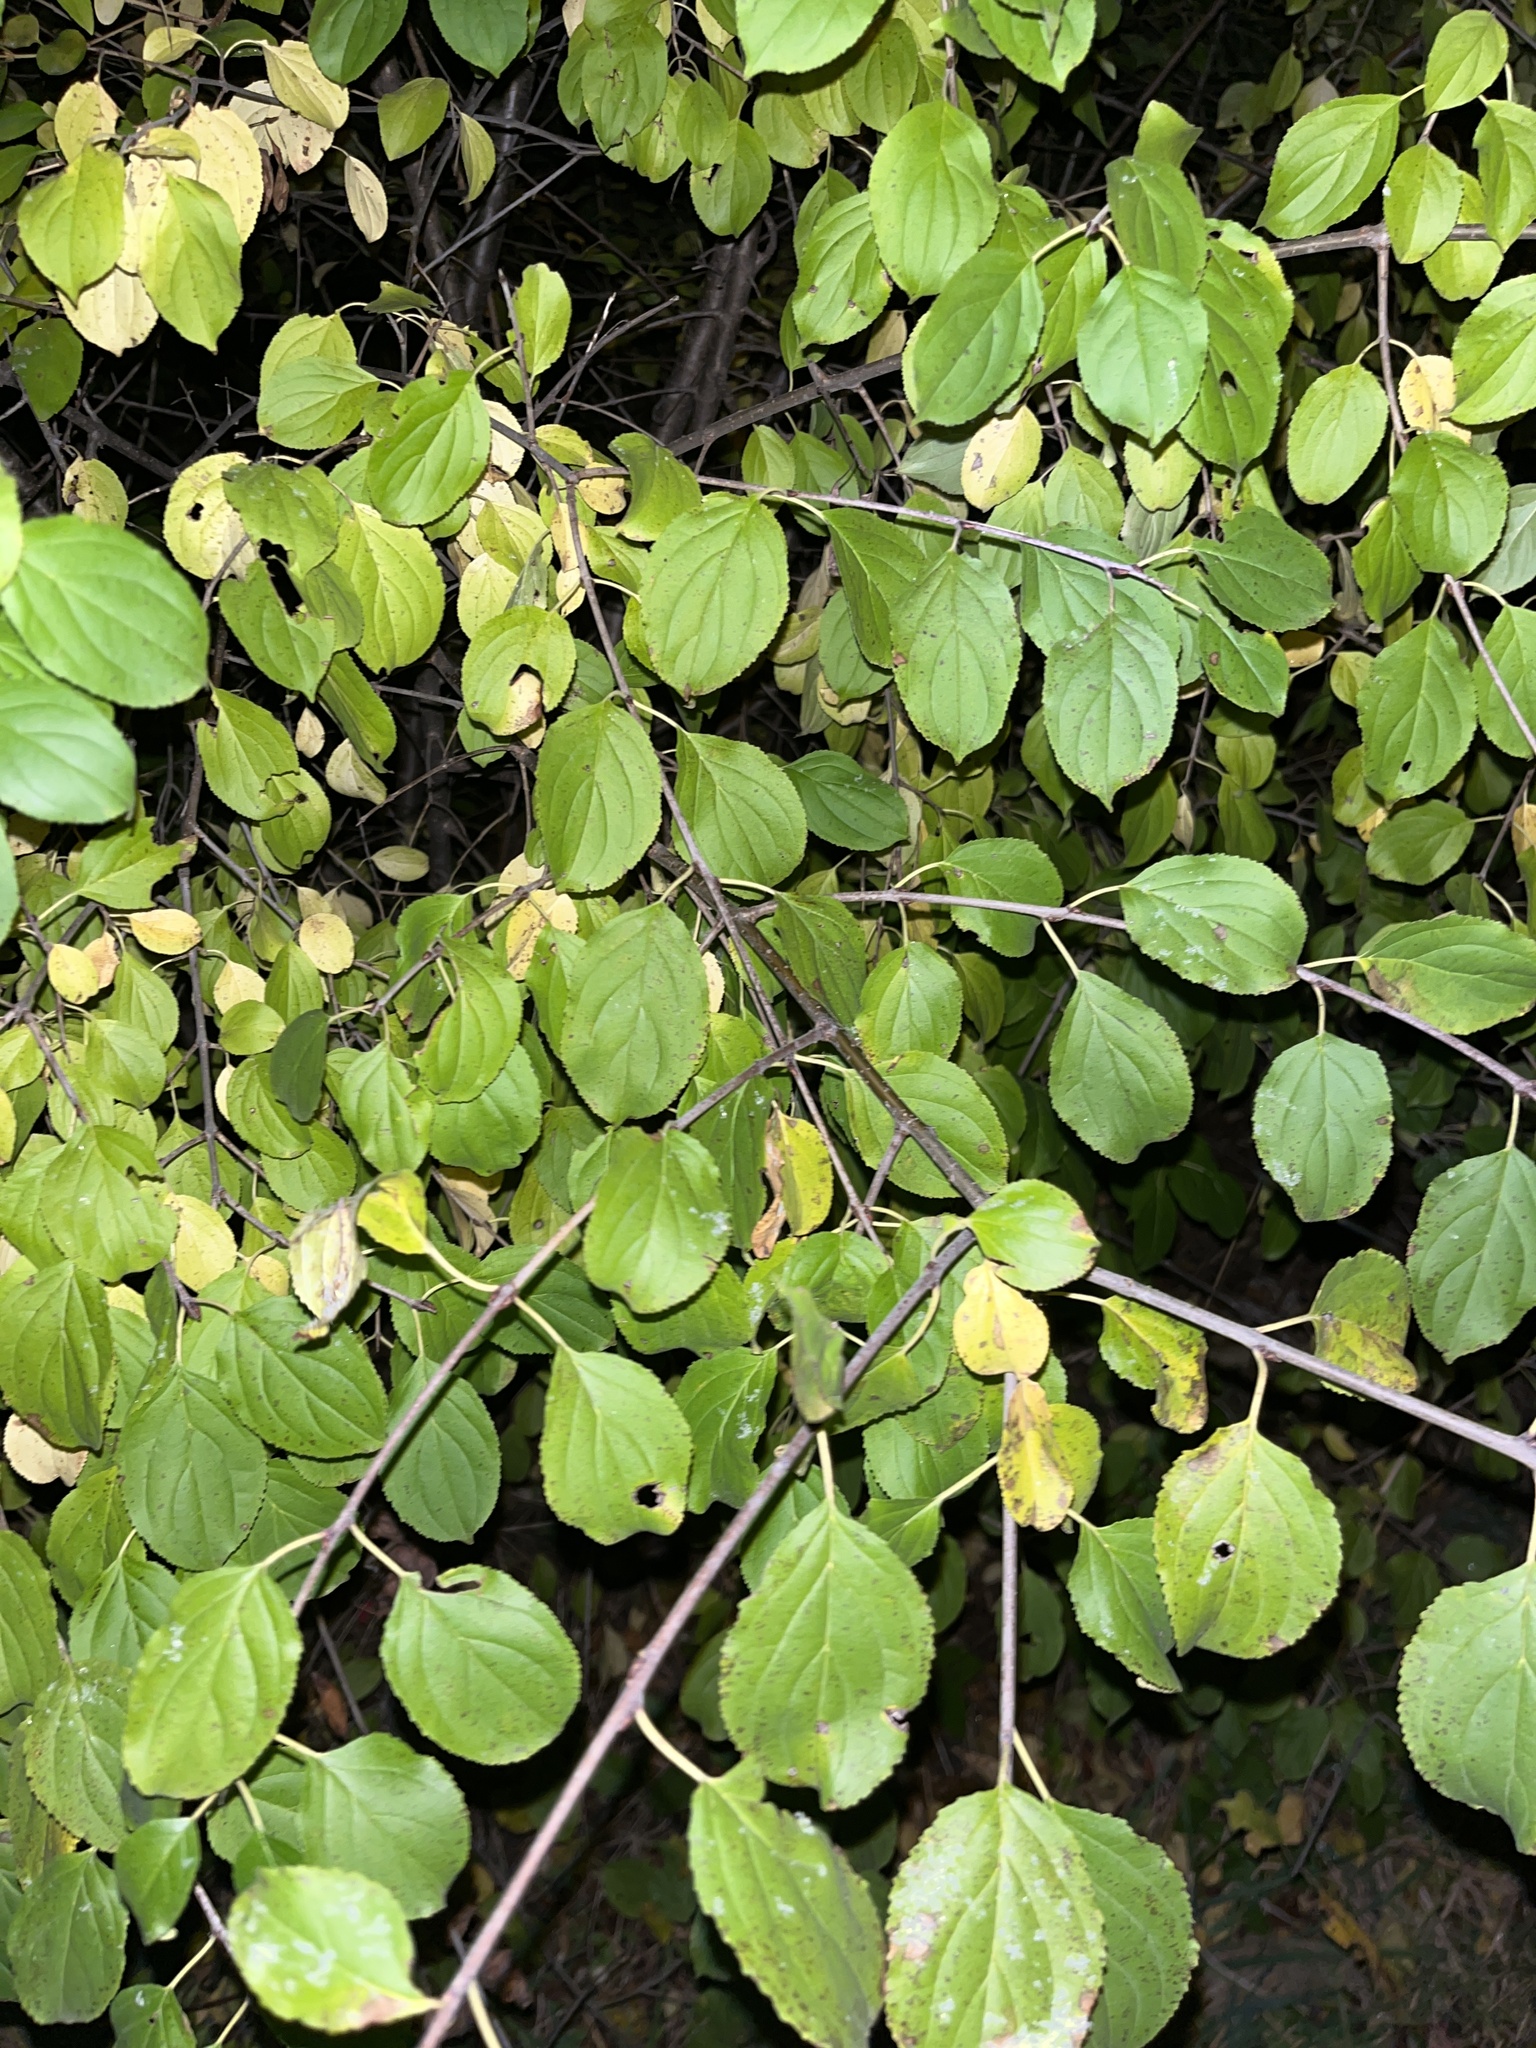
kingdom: Plantae
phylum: Tracheophyta
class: Magnoliopsida
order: Rosales
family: Rhamnaceae
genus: Rhamnus
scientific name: Rhamnus cathartica
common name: Common buckthorn
